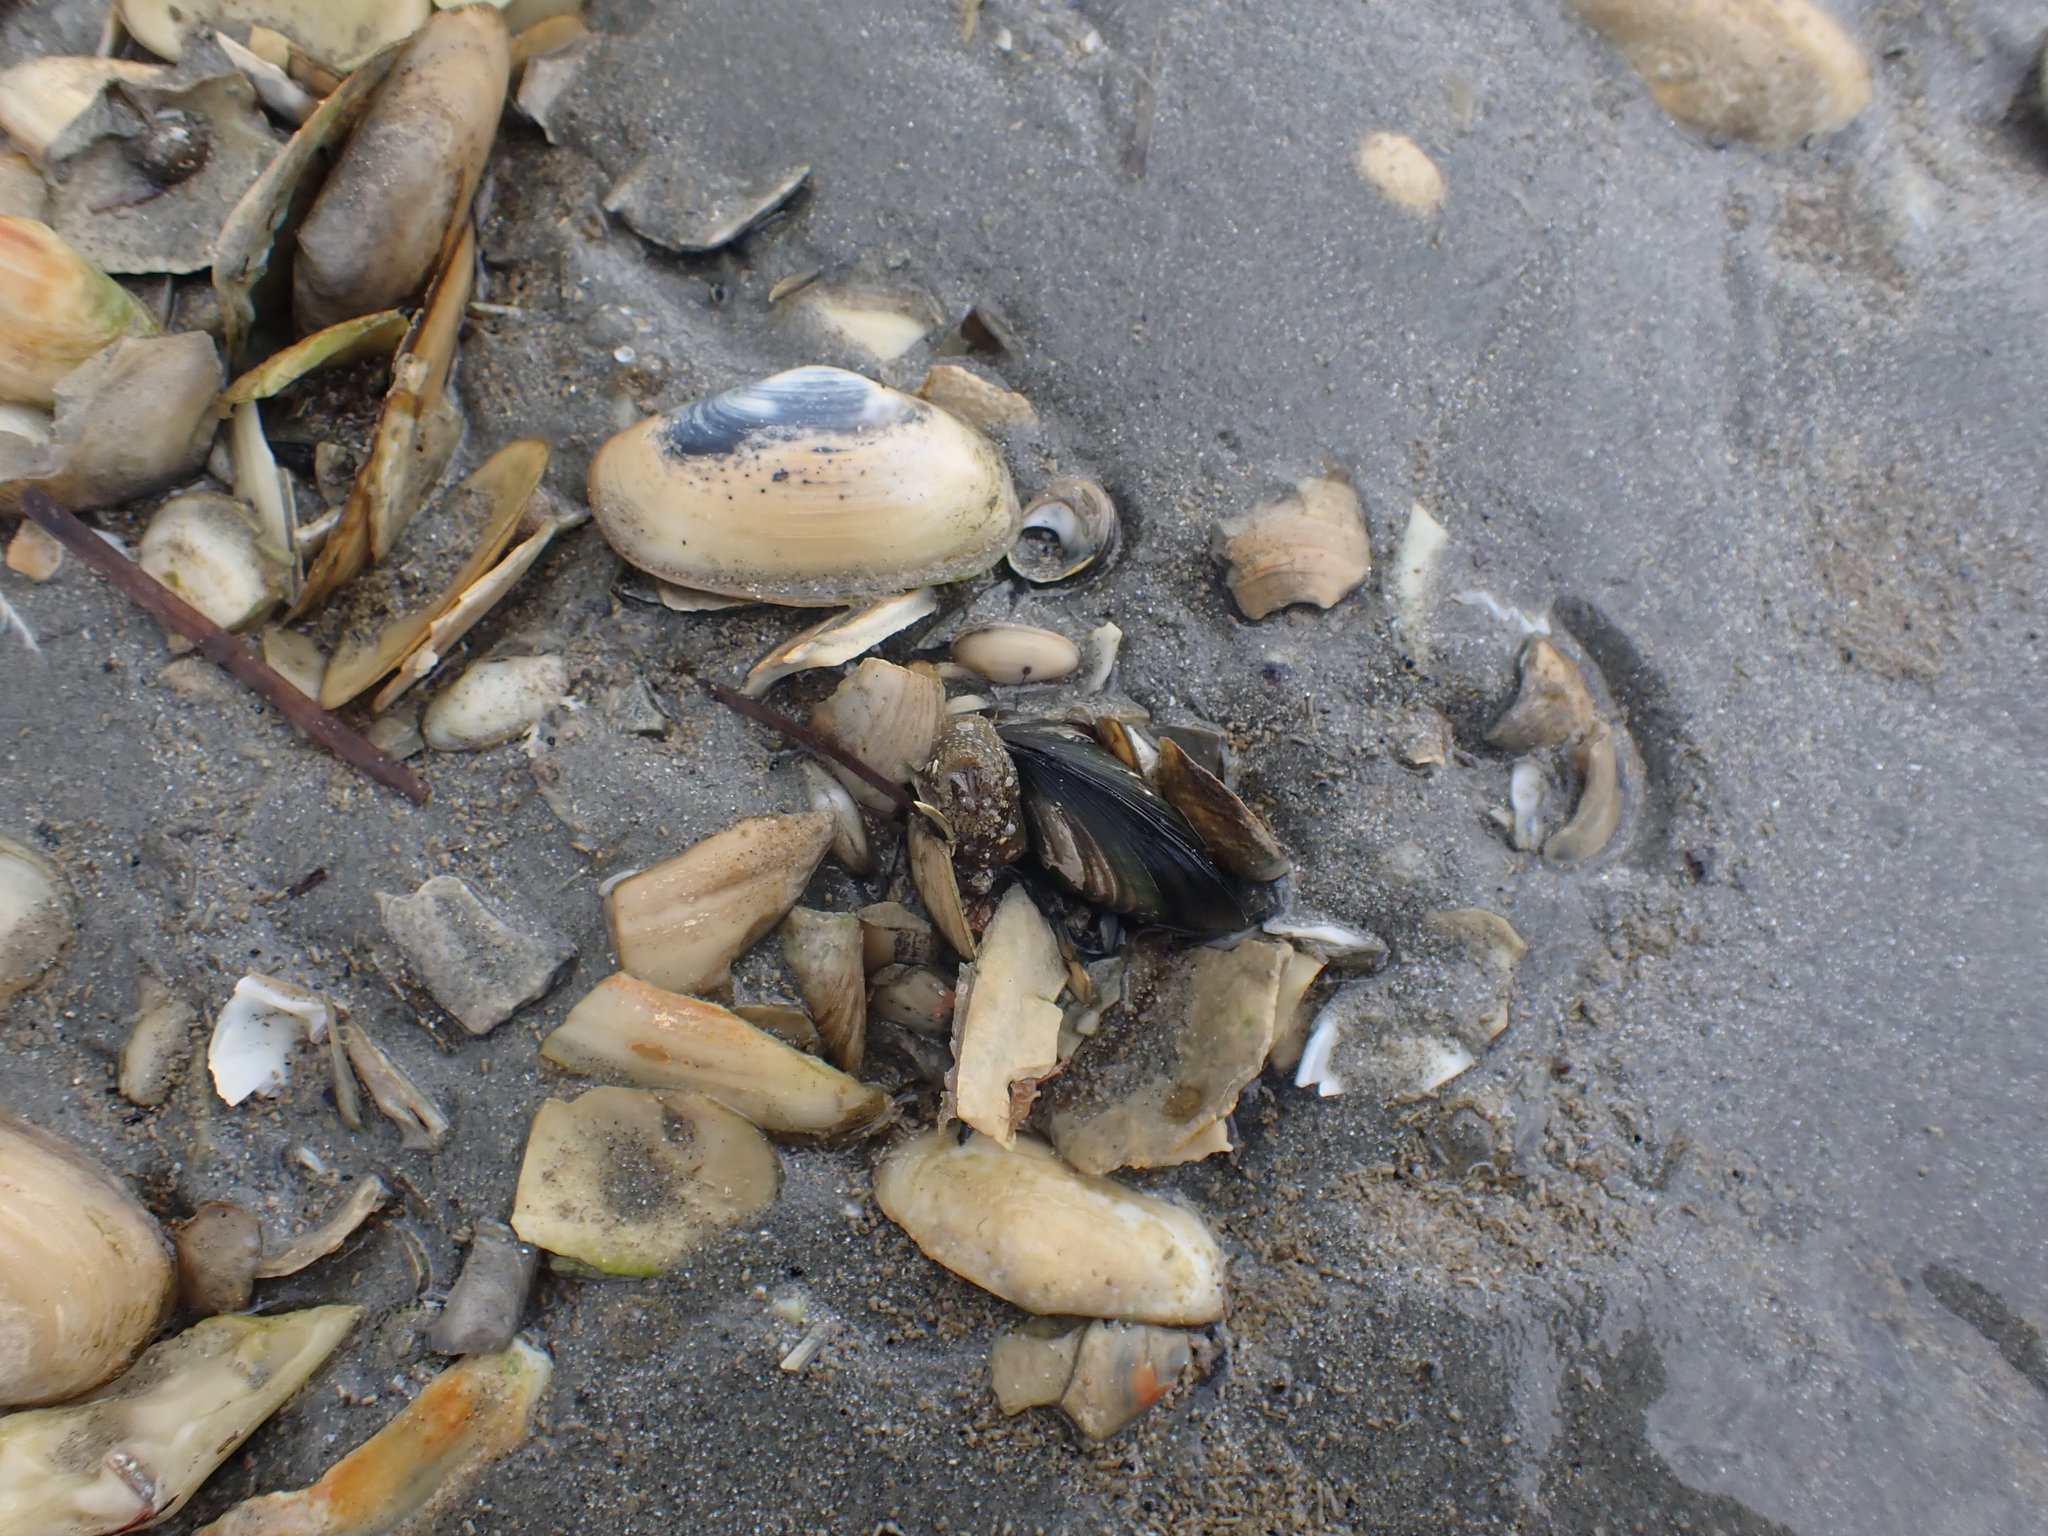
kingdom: Animalia
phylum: Mollusca
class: Bivalvia
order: Mytilida
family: Mytilidae
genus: Perna
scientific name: Perna canaliculus
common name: New zealand greenshelltm
